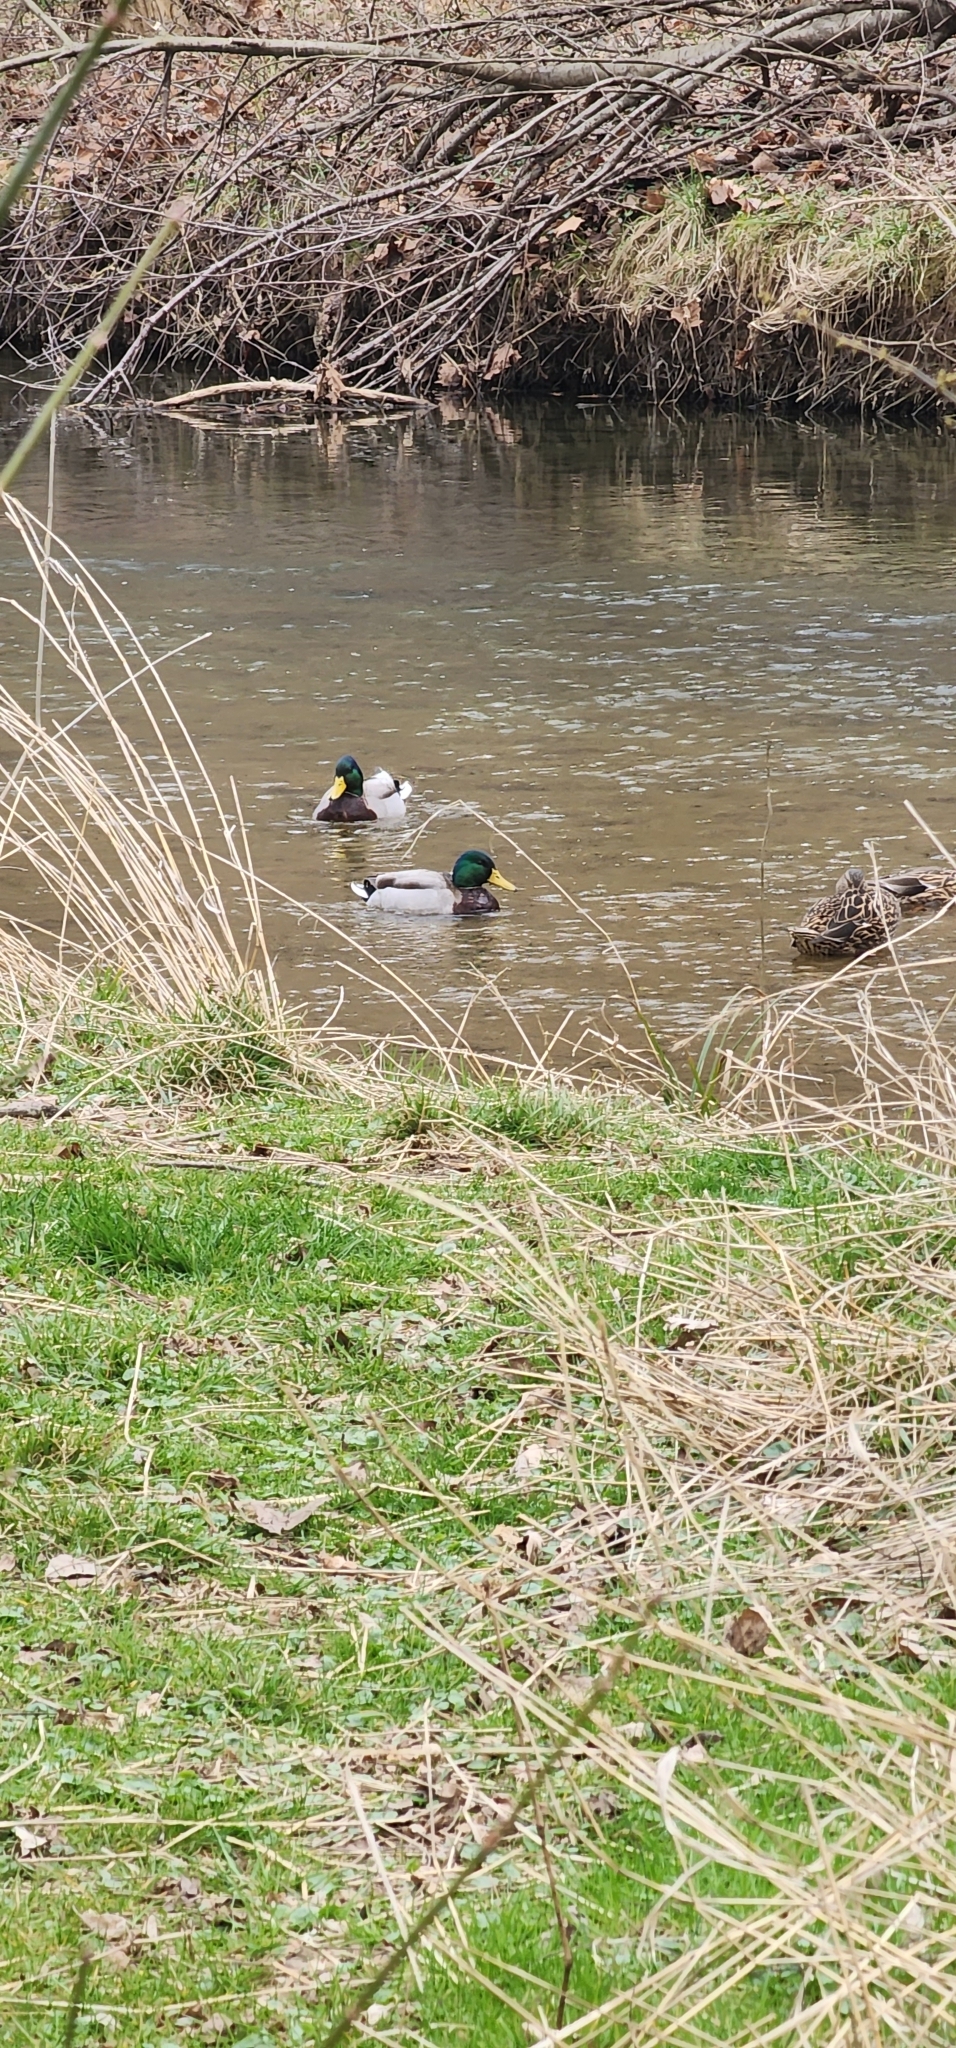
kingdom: Animalia
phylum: Chordata
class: Aves
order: Anseriformes
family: Anatidae
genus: Anas
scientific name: Anas platyrhynchos
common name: Mallard
